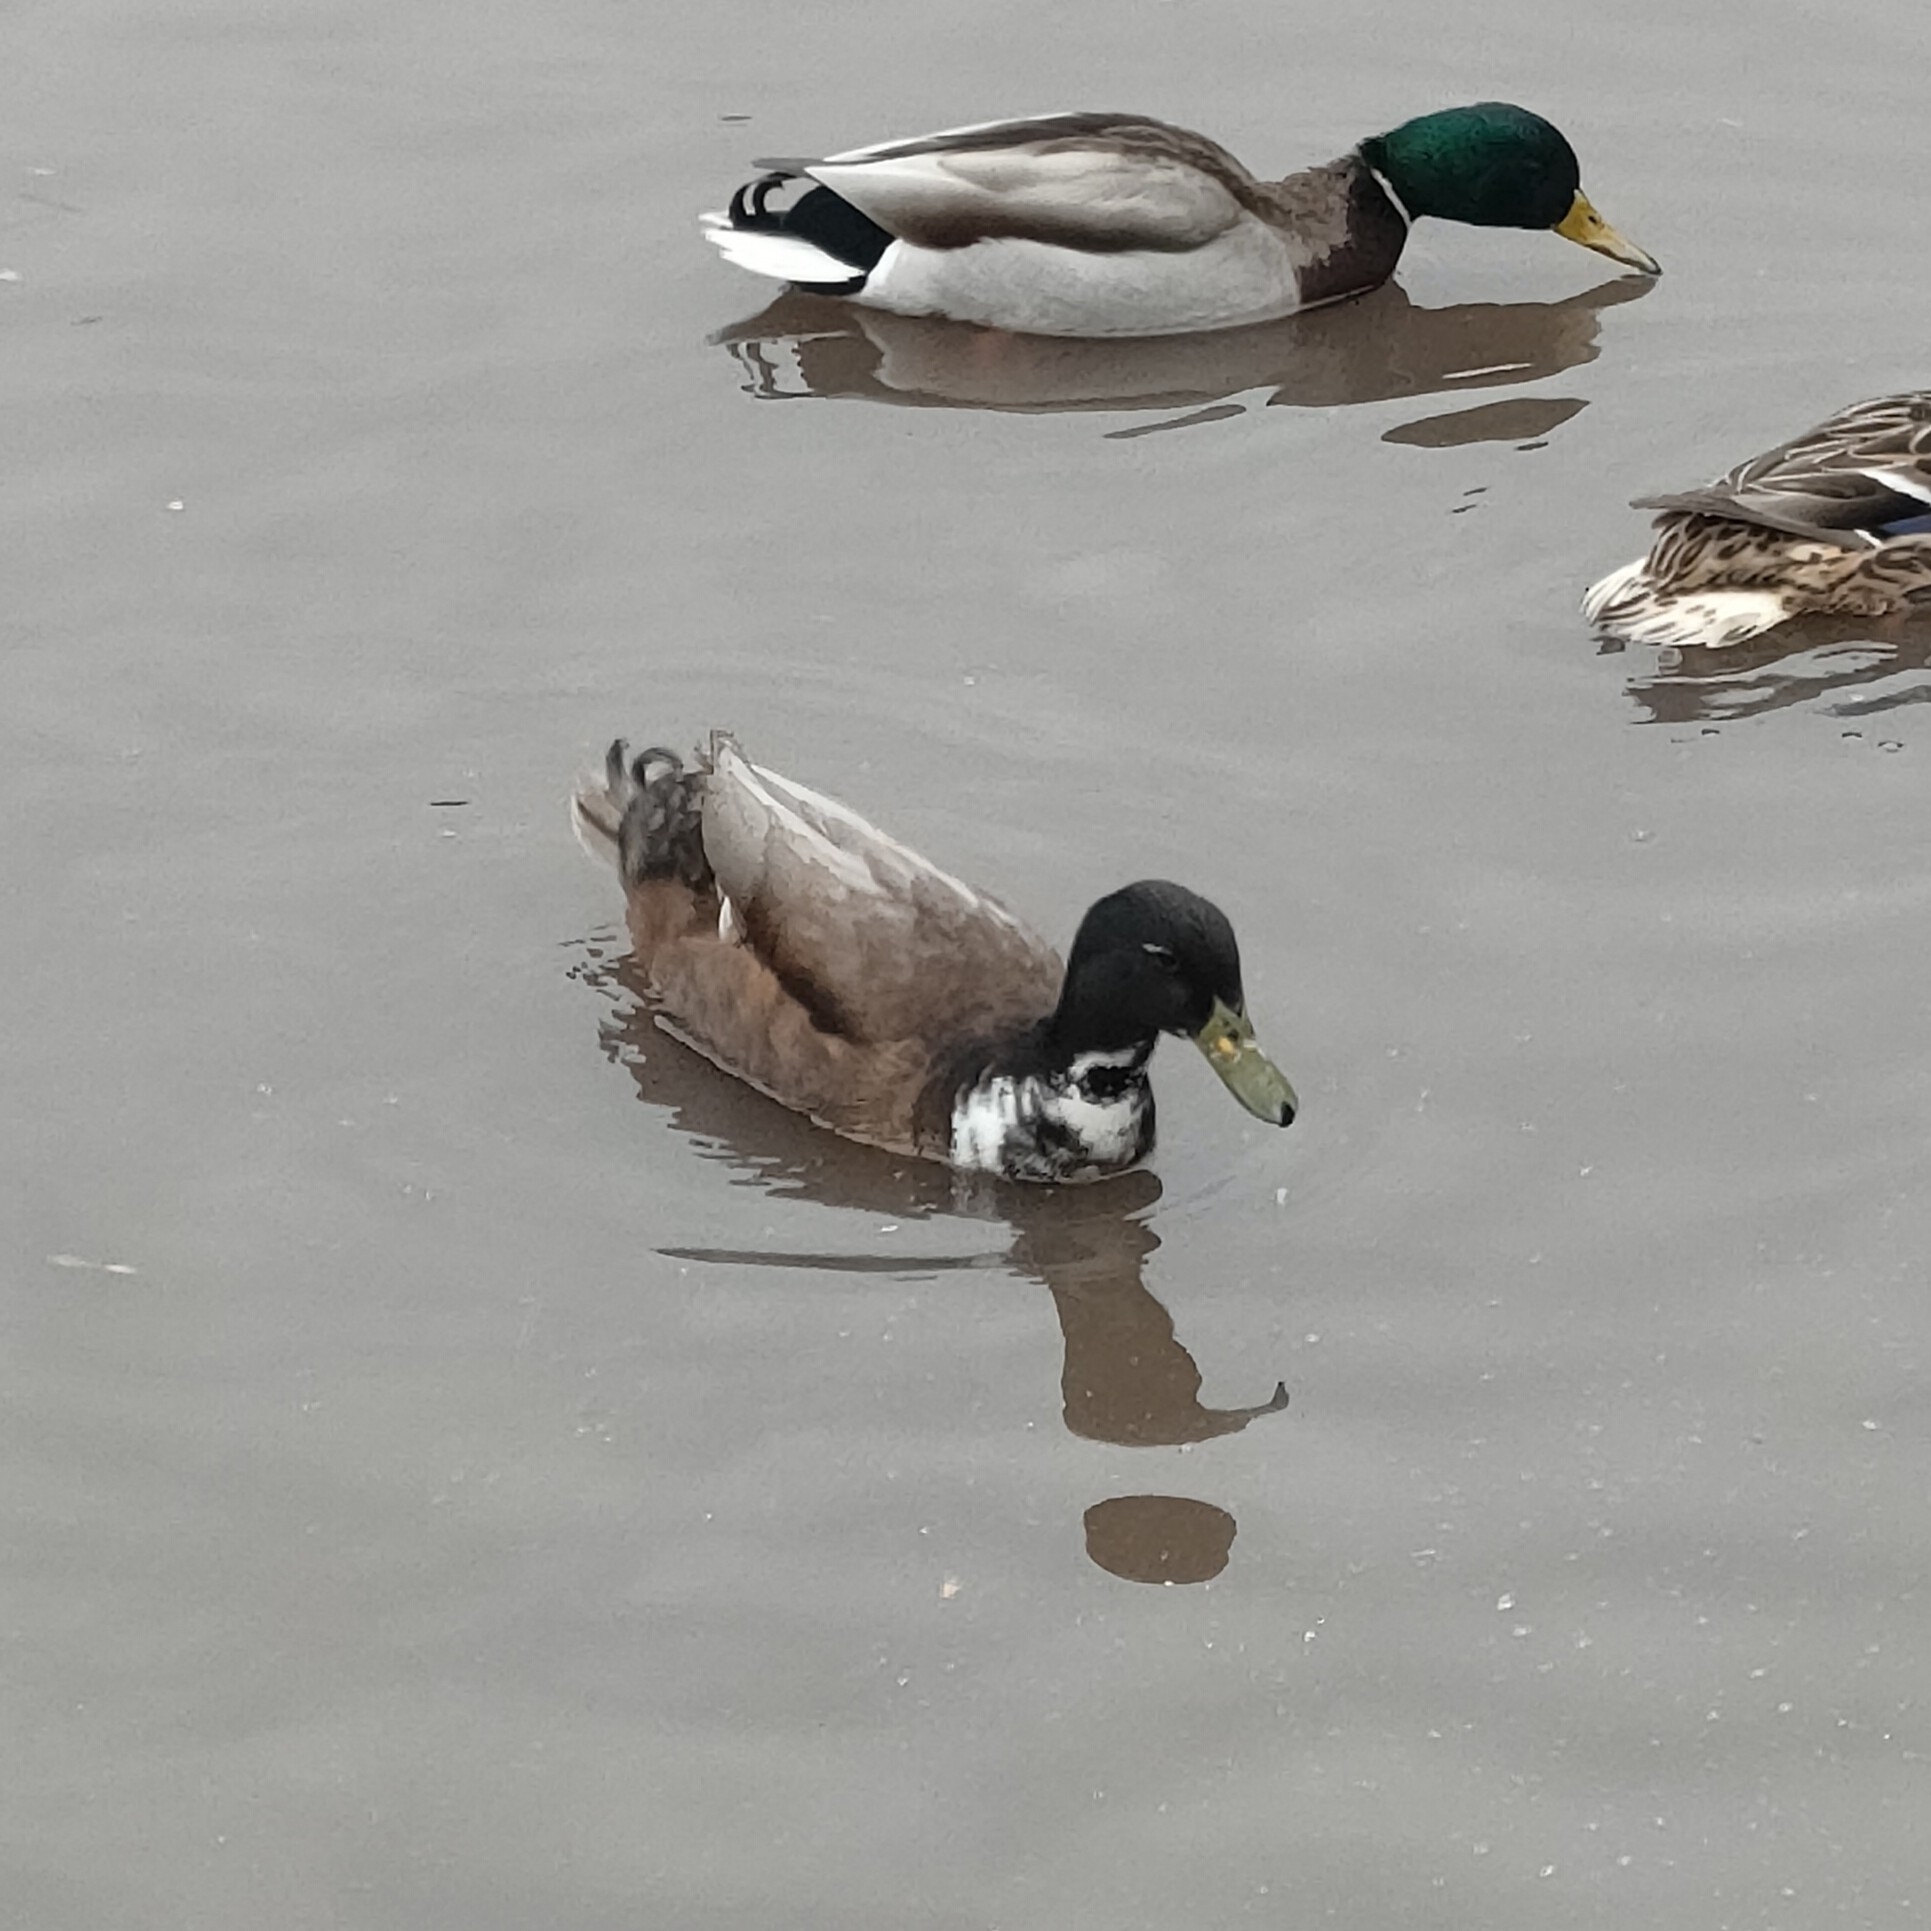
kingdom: Animalia
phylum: Chordata
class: Aves
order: Anseriformes
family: Anatidae
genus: Anas
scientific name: Anas platyrhynchos
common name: Mallard
